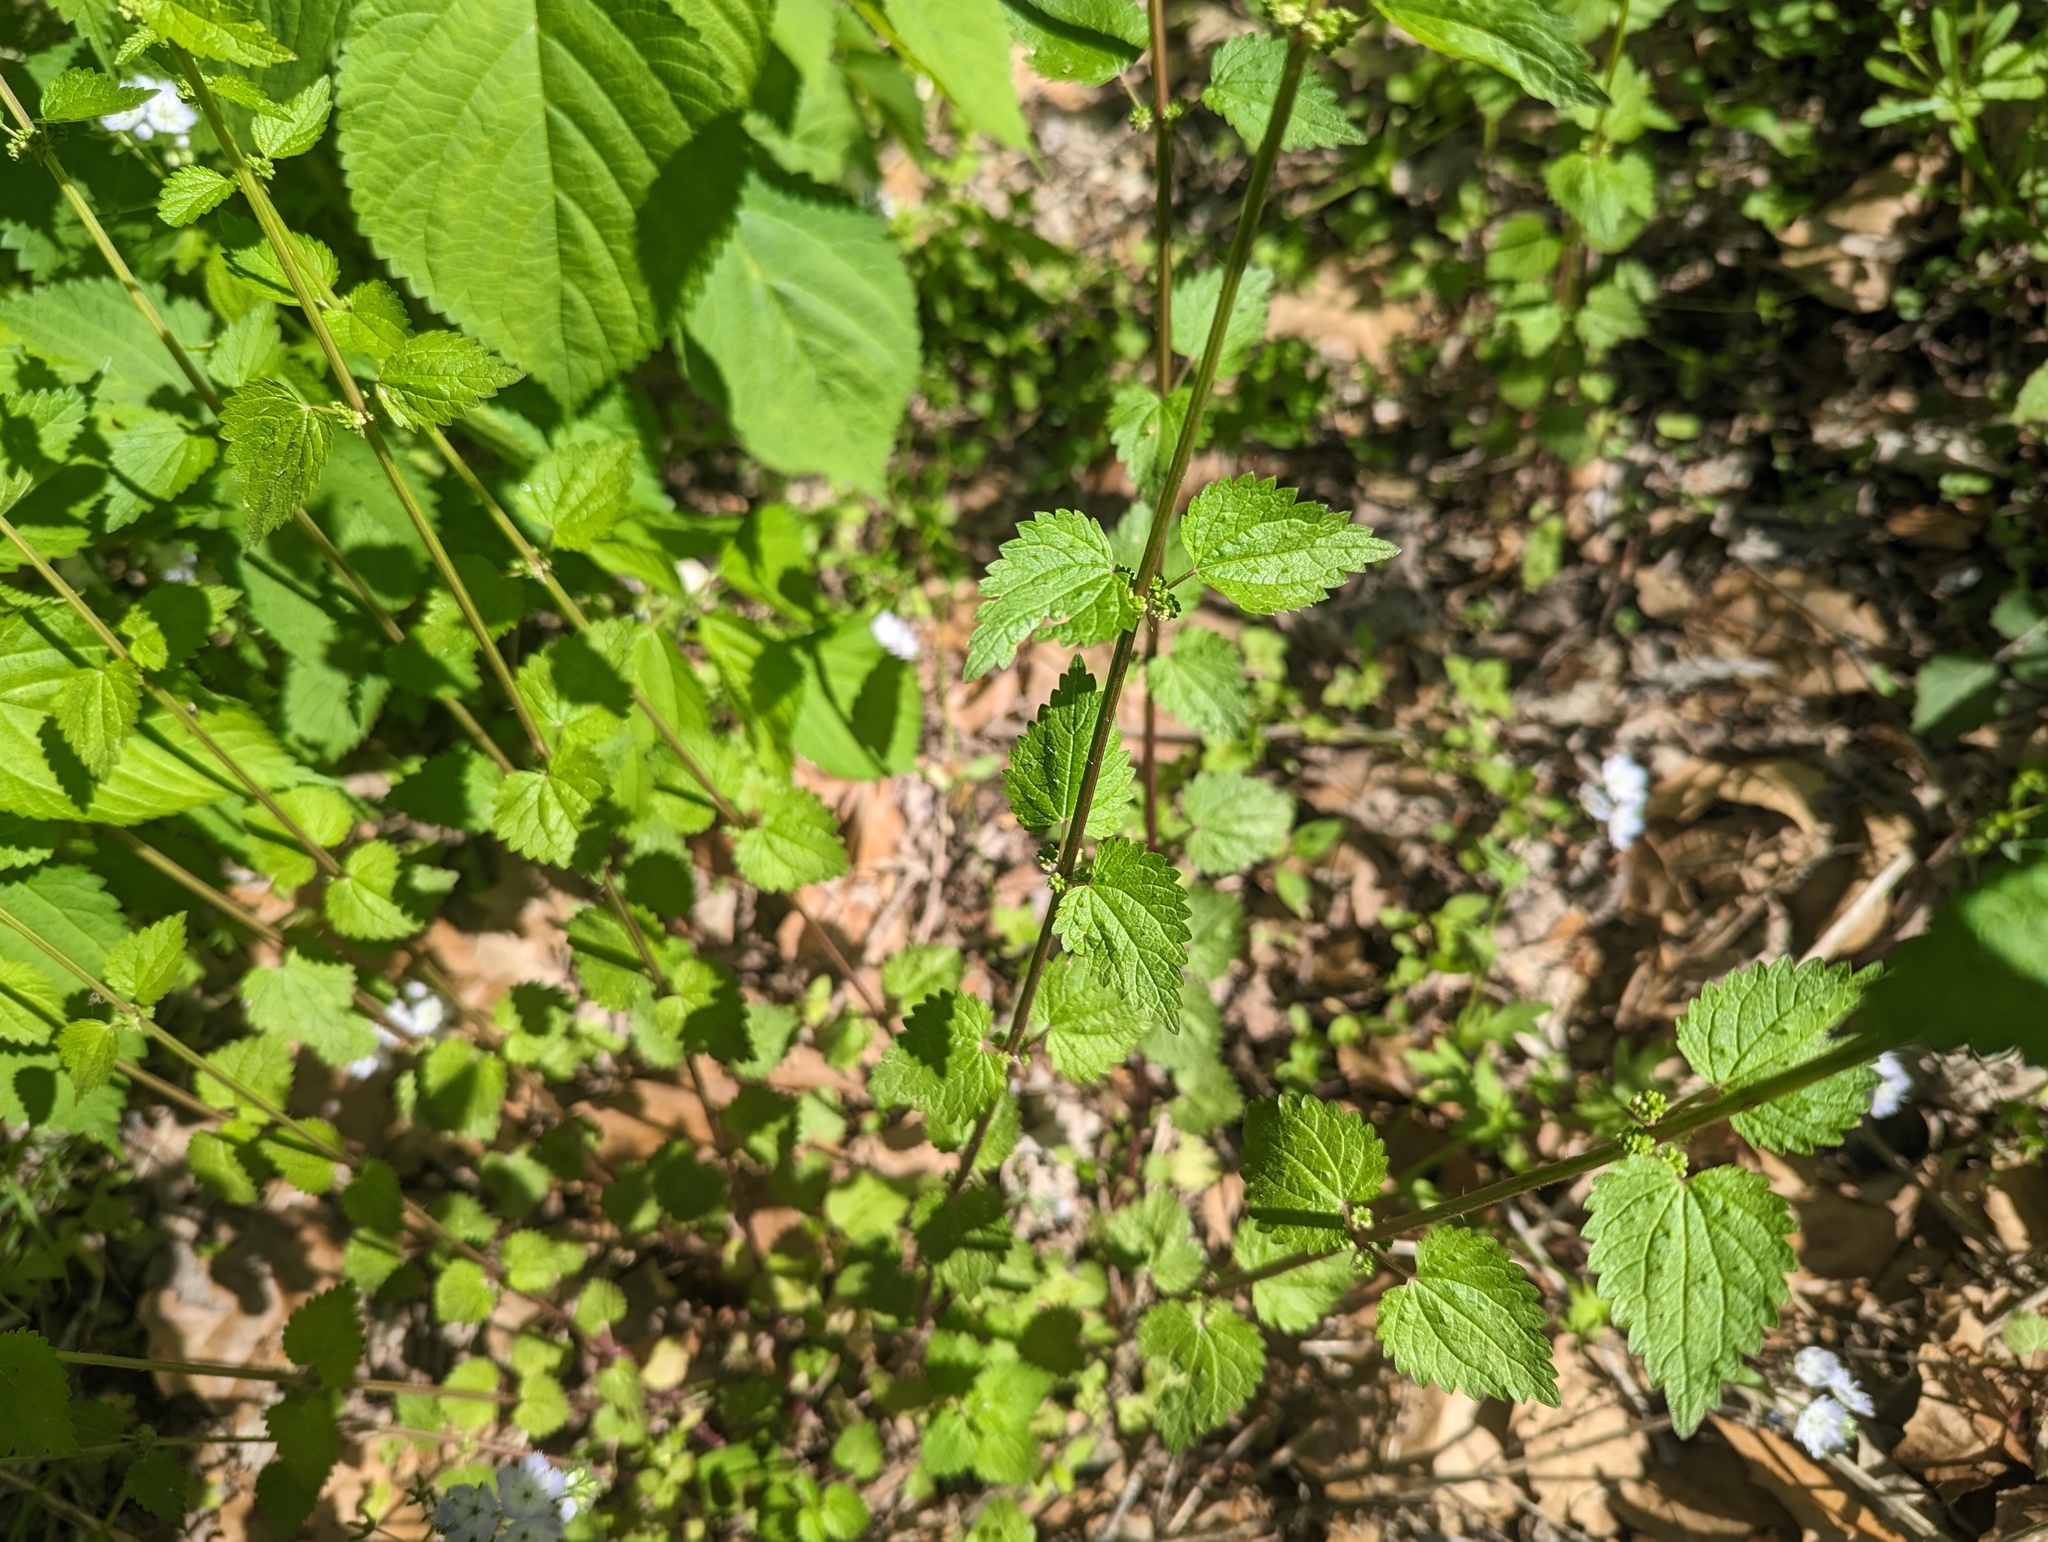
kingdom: Plantae
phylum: Tracheophyta
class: Magnoliopsida
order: Rosales
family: Urticaceae
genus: Urtica
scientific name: Urtica chamaedryoides
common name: Heart-leaf nettle
